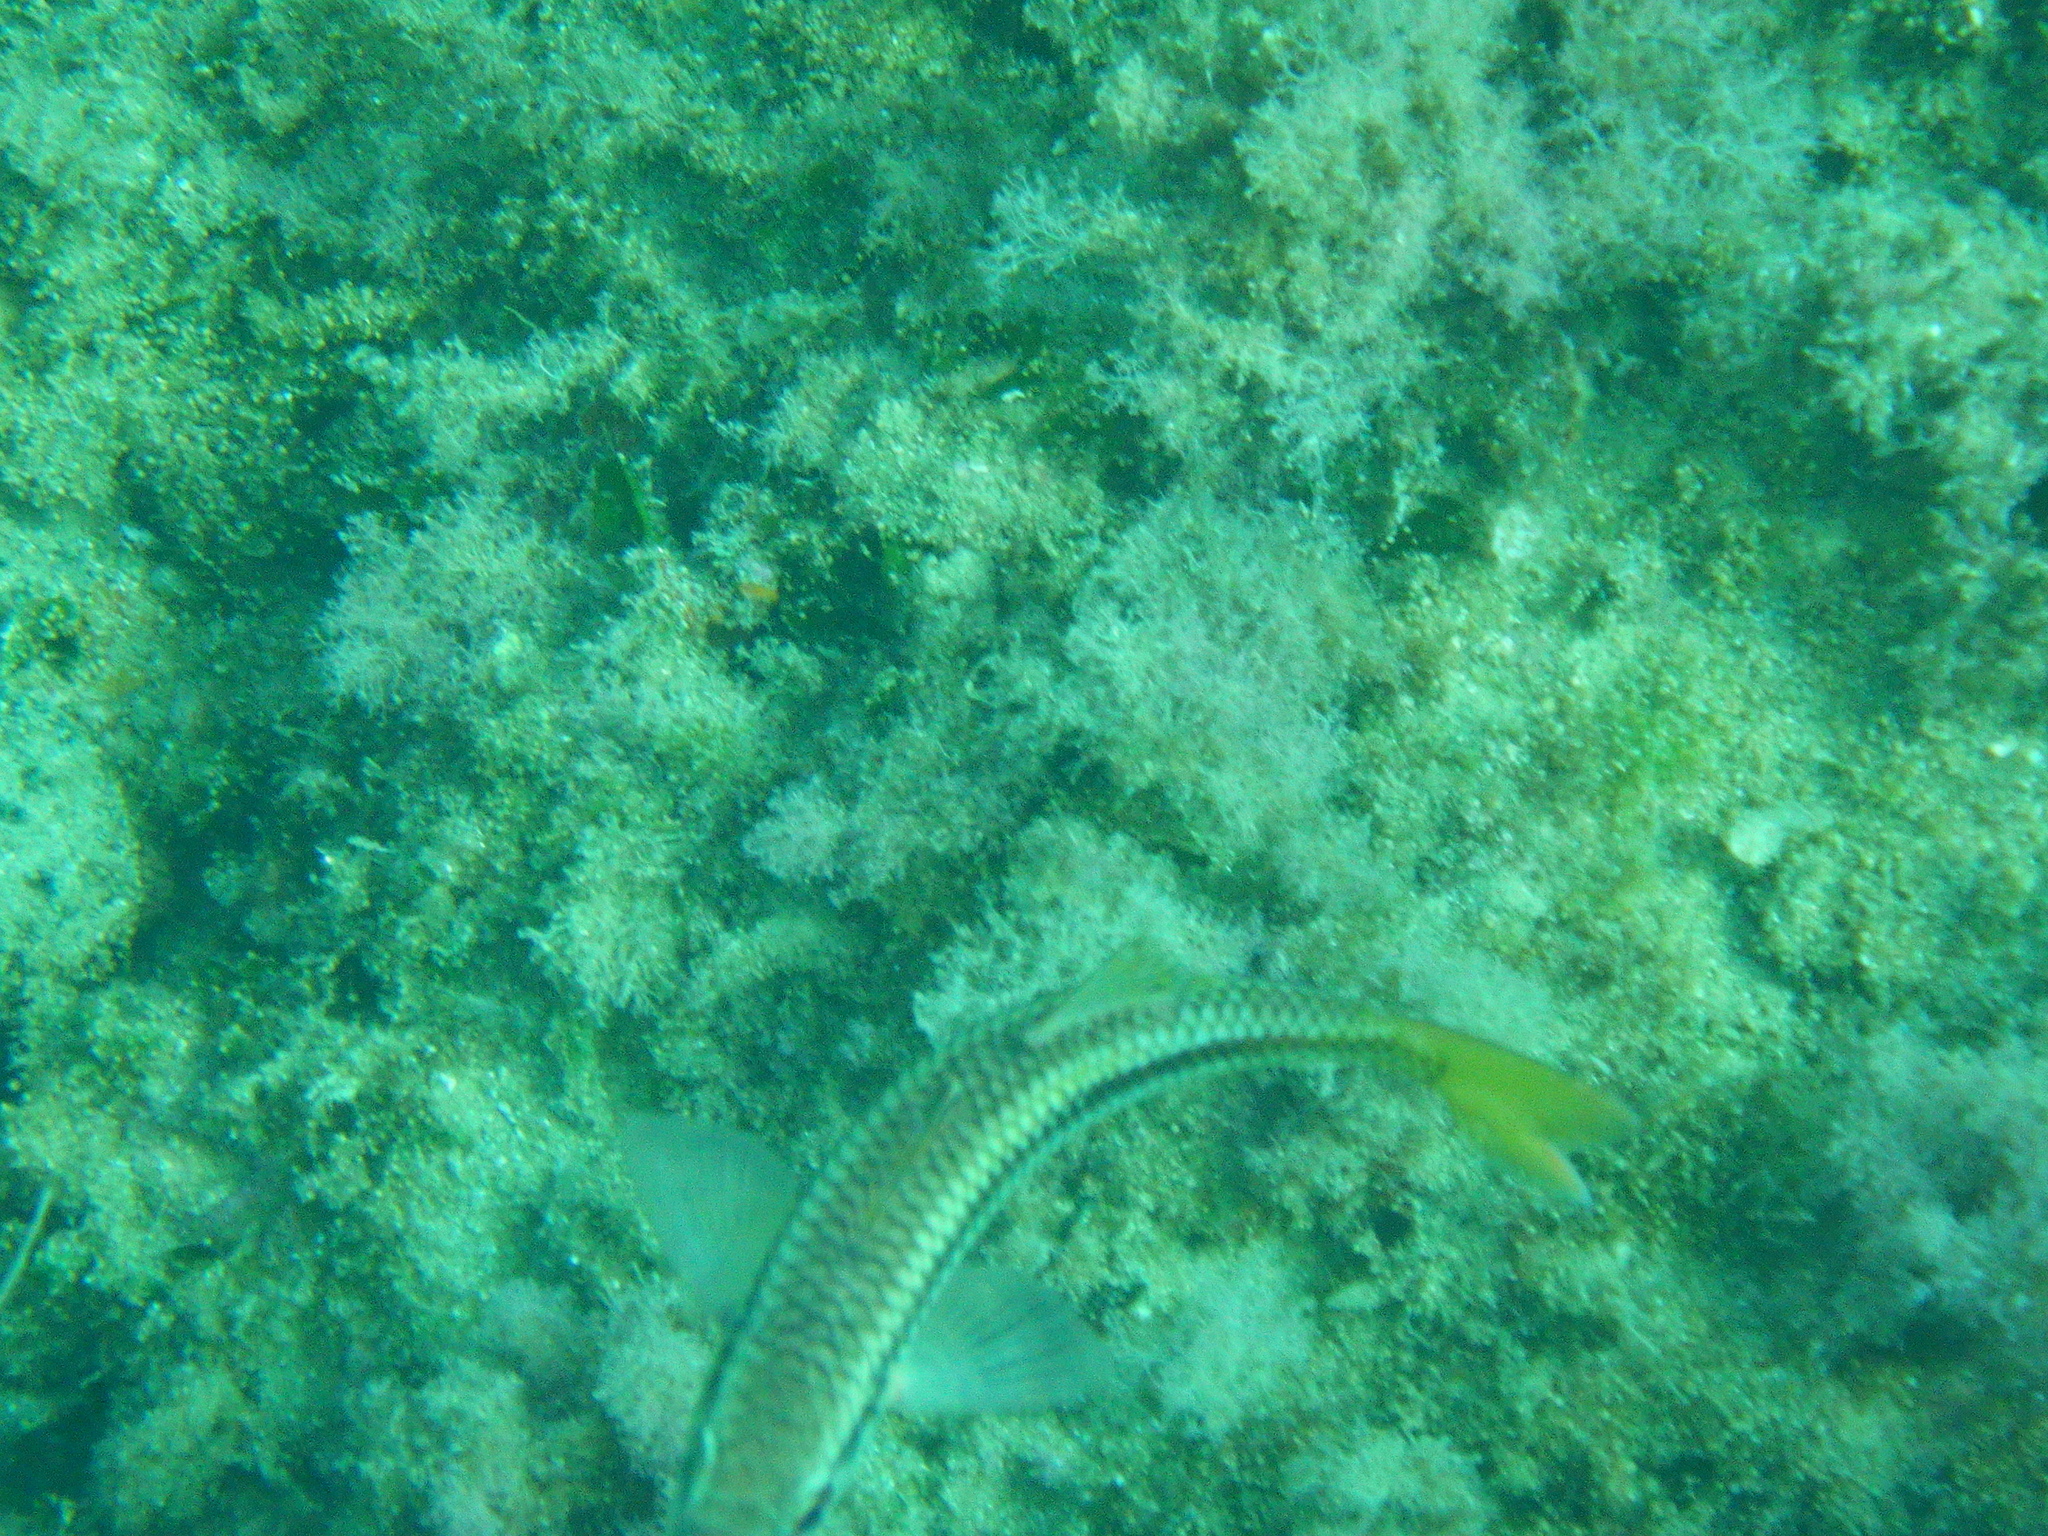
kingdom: Animalia
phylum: Chordata
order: Perciformes
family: Mullidae
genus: Mullus
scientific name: Mullus surmuletus
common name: Red mullet
